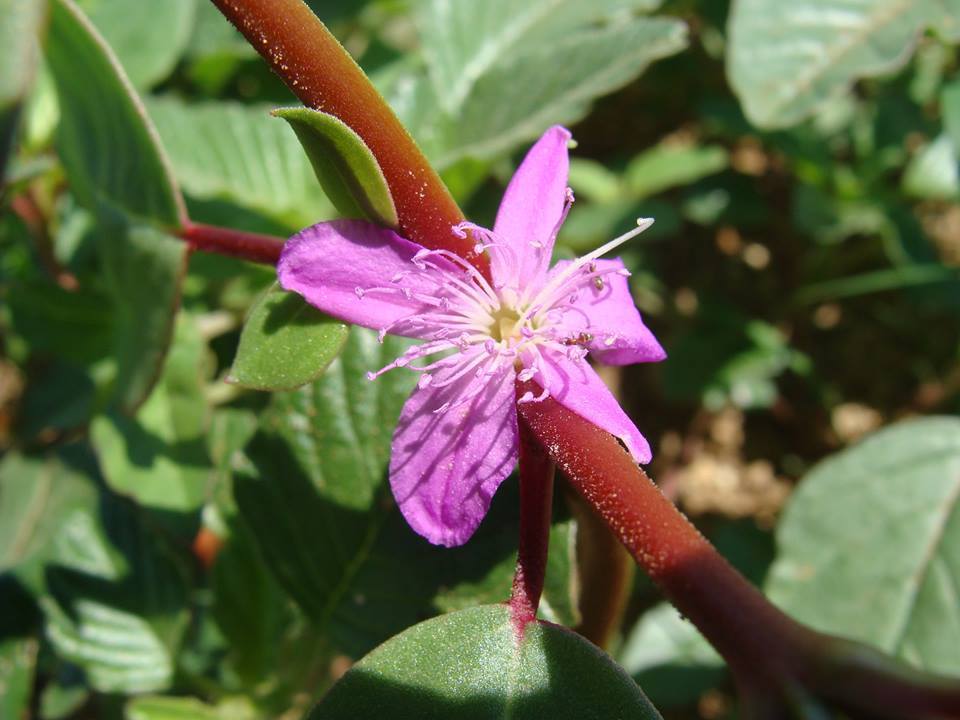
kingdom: Plantae
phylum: Tracheophyta
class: Magnoliopsida
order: Caryophyllales
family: Aizoaceae
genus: Trianthema
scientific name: Trianthema portulacastrum
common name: Desert horsepurslane
